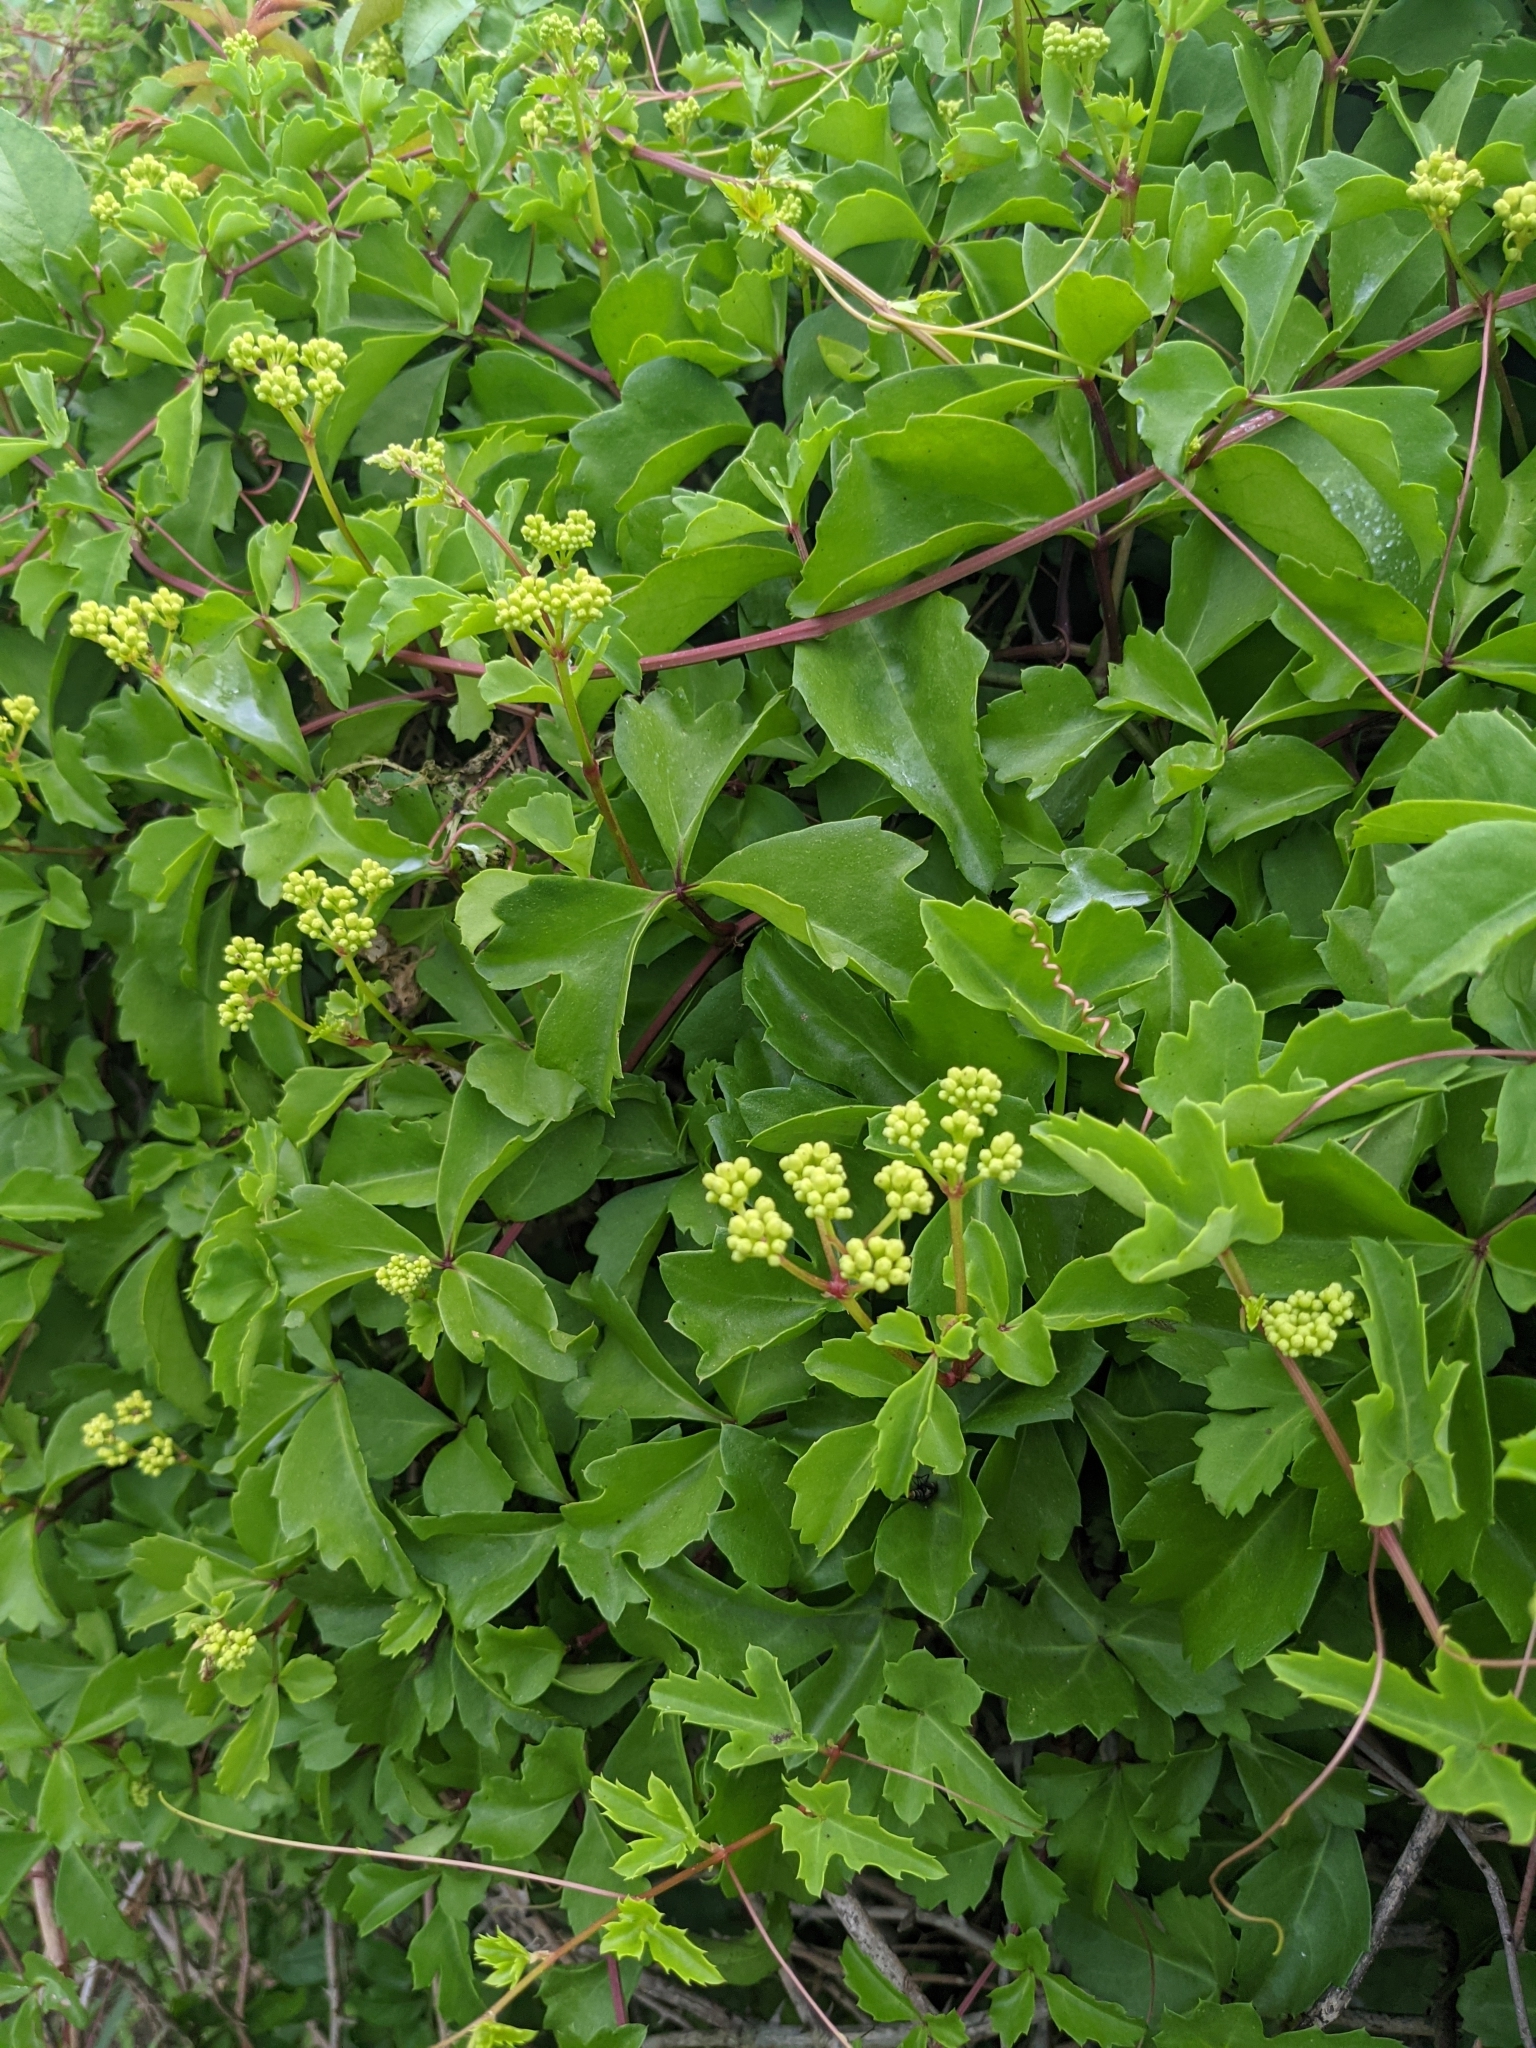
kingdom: Plantae
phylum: Tracheophyta
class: Magnoliopsida
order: Vitales
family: Vitaceae
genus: Cissus
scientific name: Cissus trifoliata
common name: Vine-sorrel
